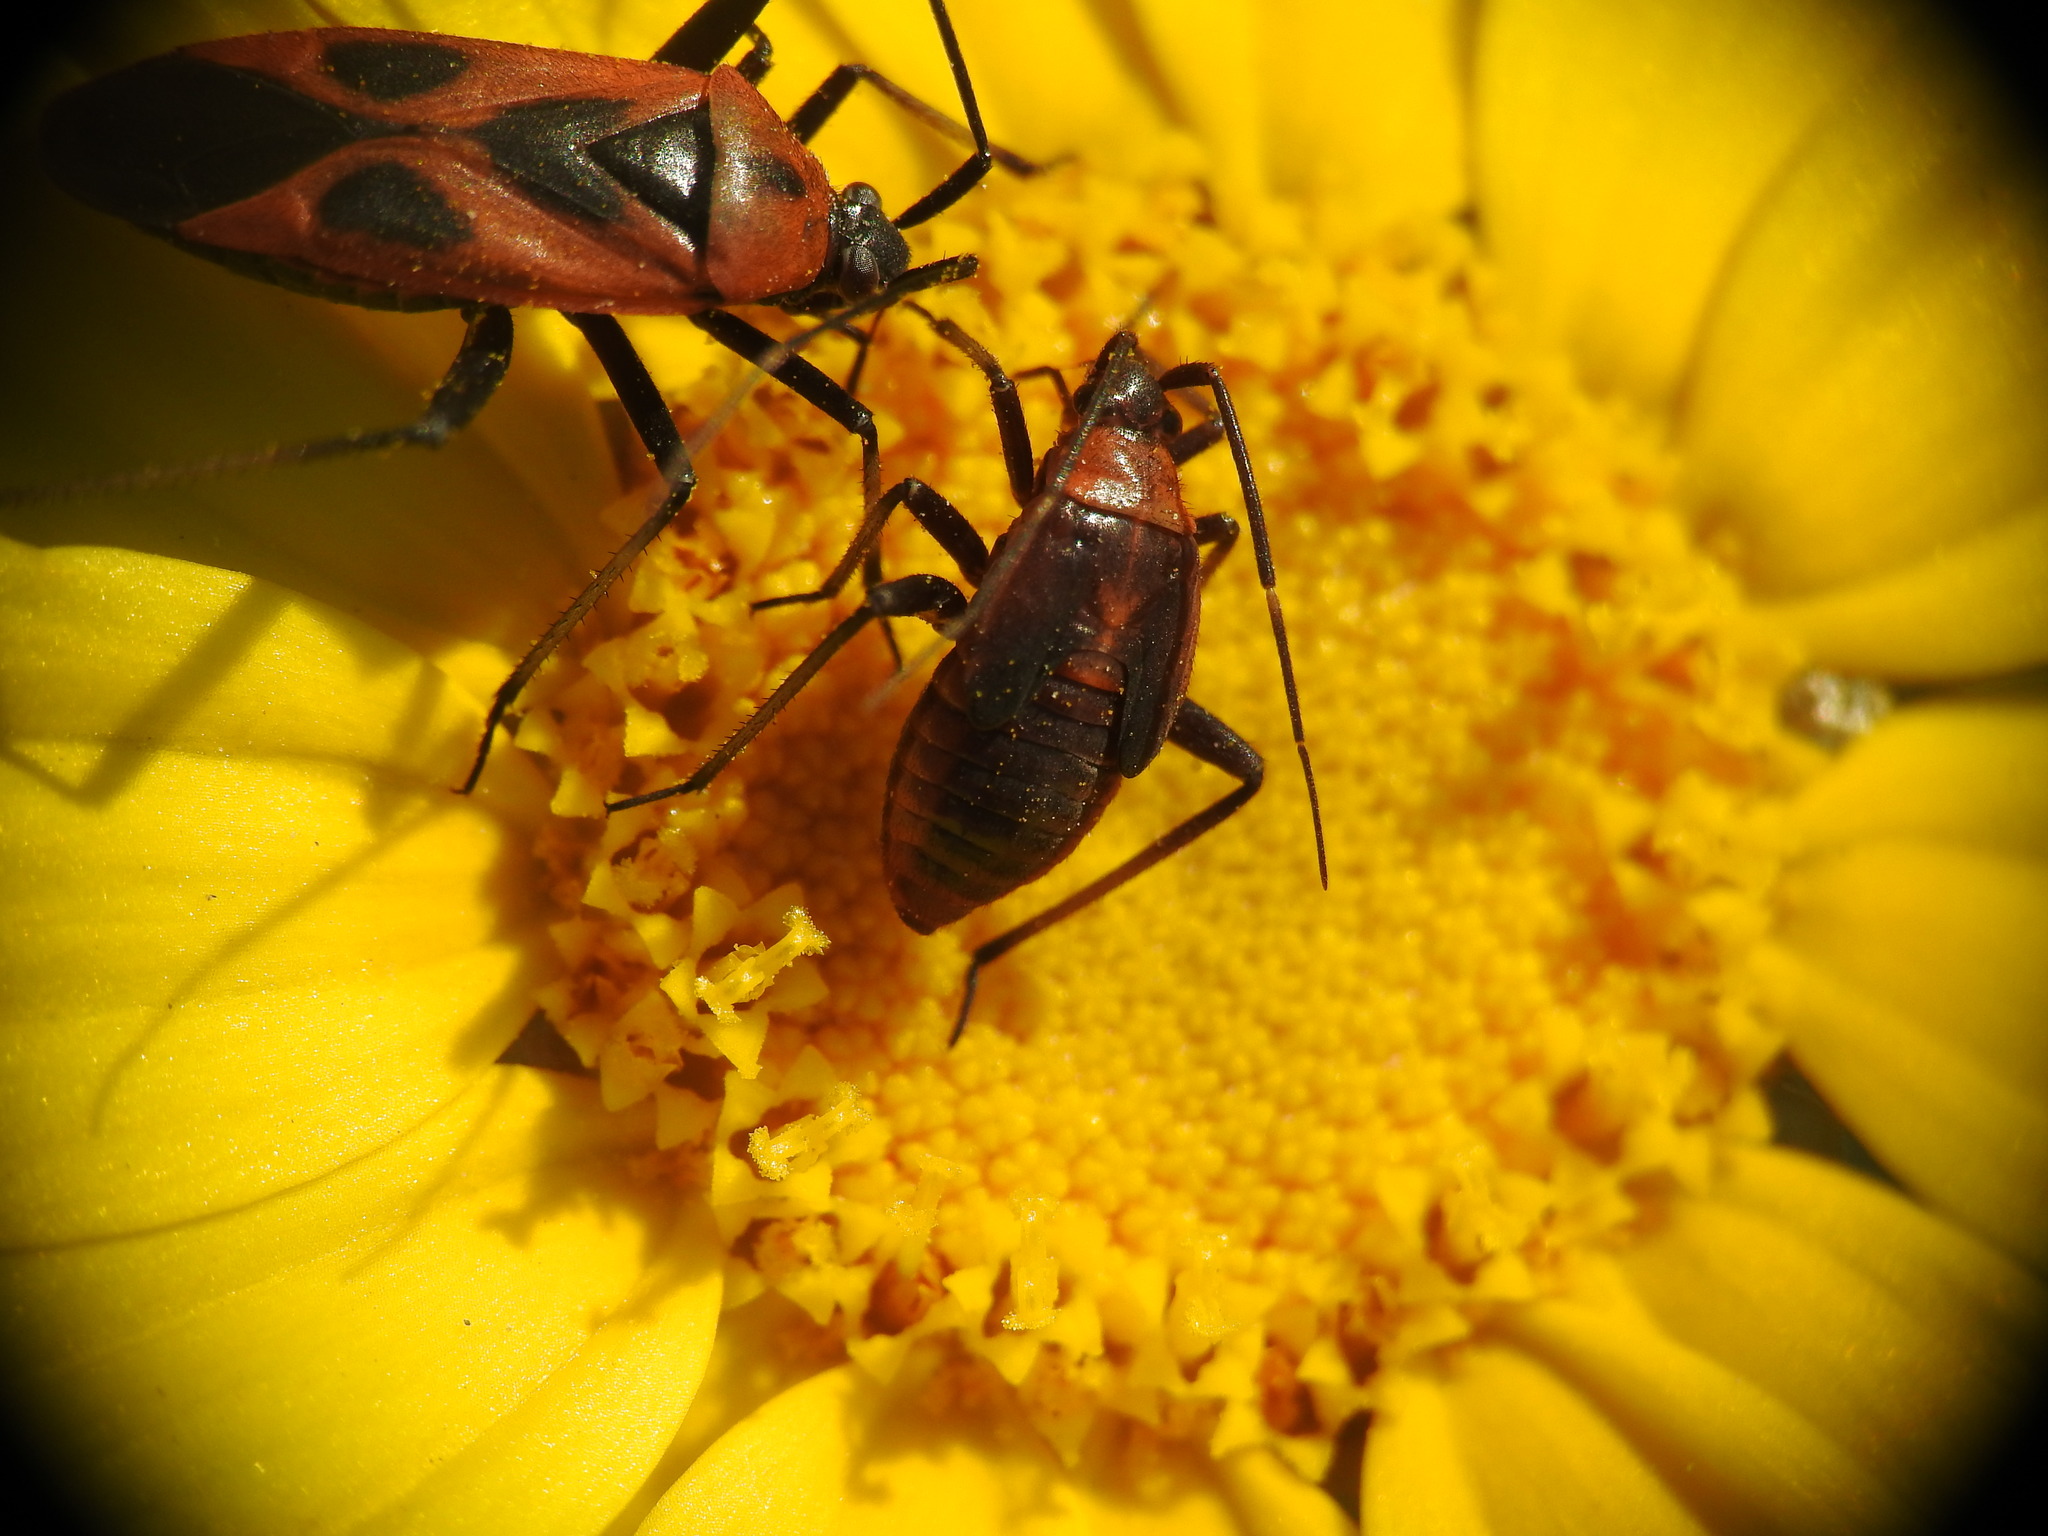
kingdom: Animalia
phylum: Arthropoda
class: Insecta
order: Hemiptera
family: Miridae
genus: Calocoris
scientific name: Calocoris nemoralis
